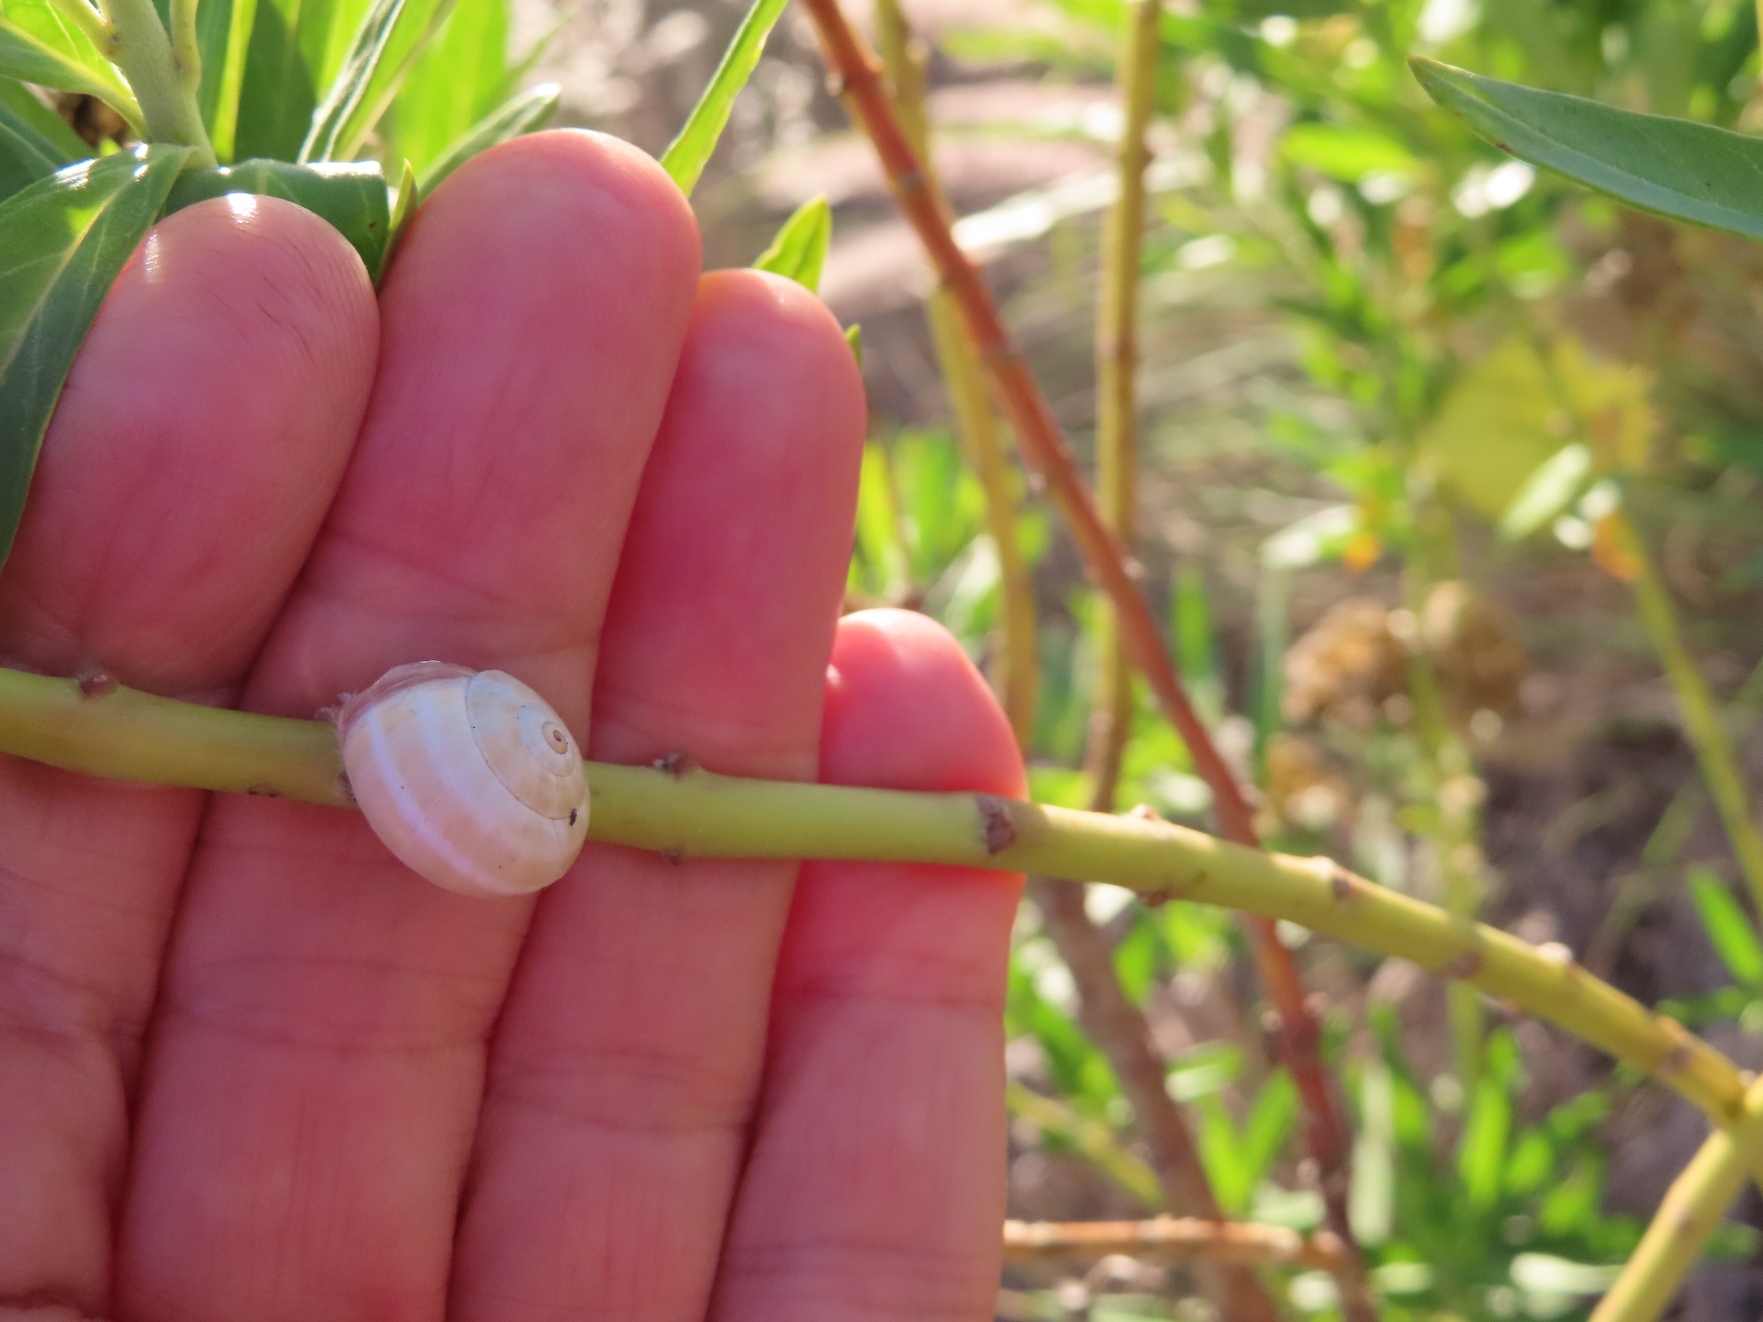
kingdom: Animalia
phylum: Mollusca
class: Gastropoda
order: Stylommatophora
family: Helicidae
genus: Theba
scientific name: Theba pisana
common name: White snail
